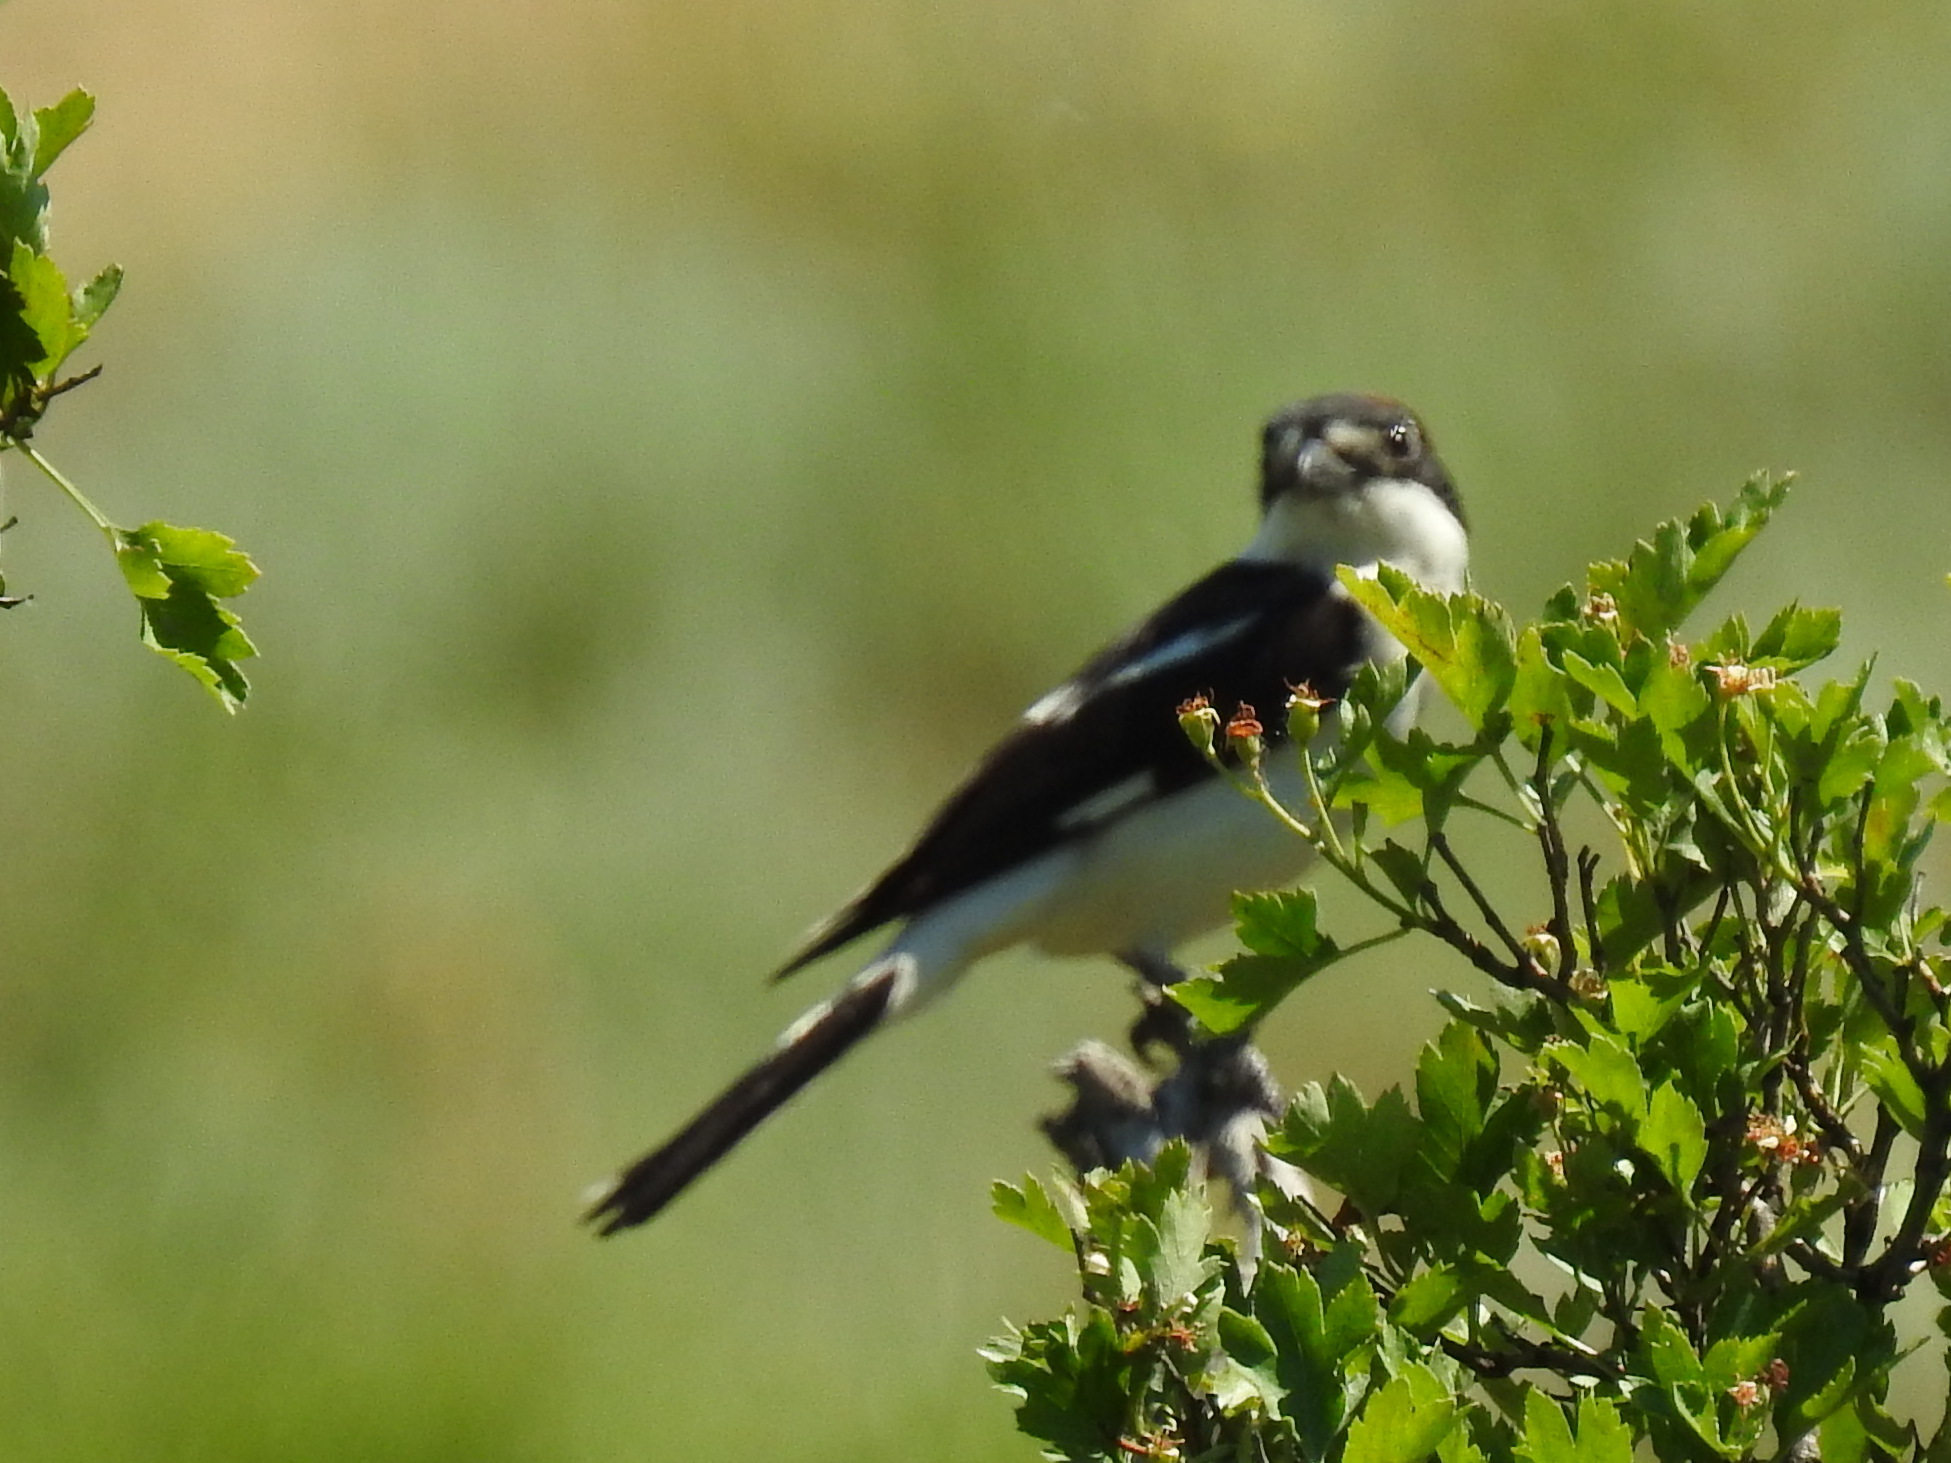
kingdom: Animalia
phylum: Chordata
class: Aves
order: Passeriformes
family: Laniidae
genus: Lanius
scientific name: Lanius senator
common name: Woodchat shrike
